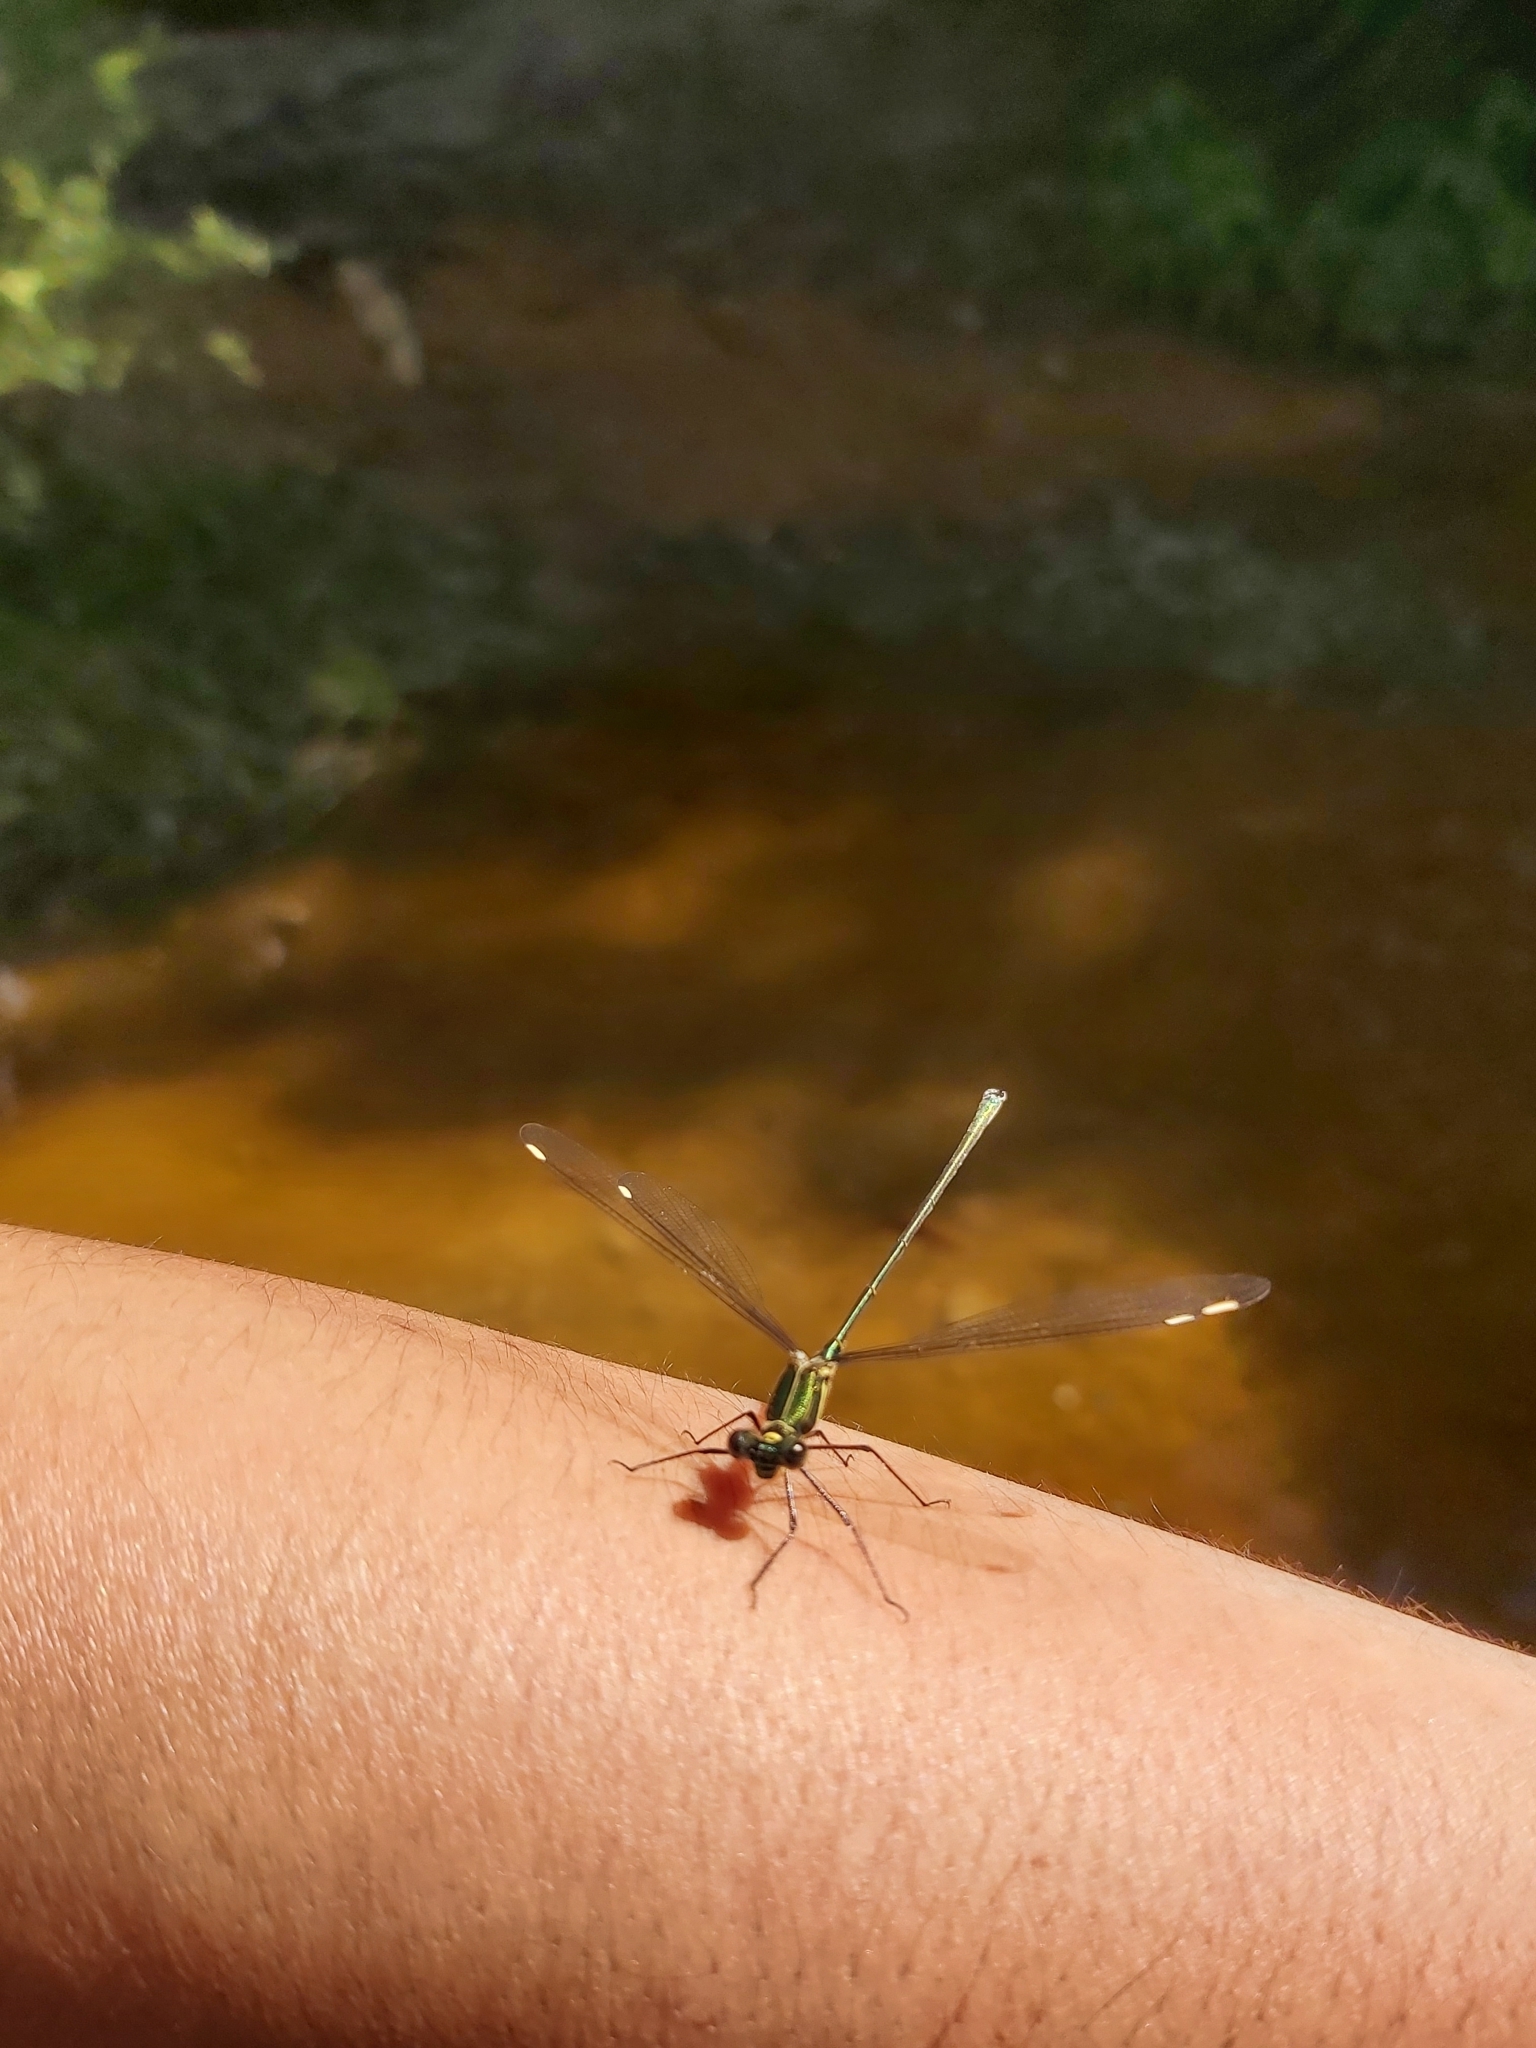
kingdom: Animalia
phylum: Arthropoda
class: Insecta
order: Odonata
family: Synlestidae
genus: Synlestes
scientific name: Synlestes weyersii
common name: Bronze needle
